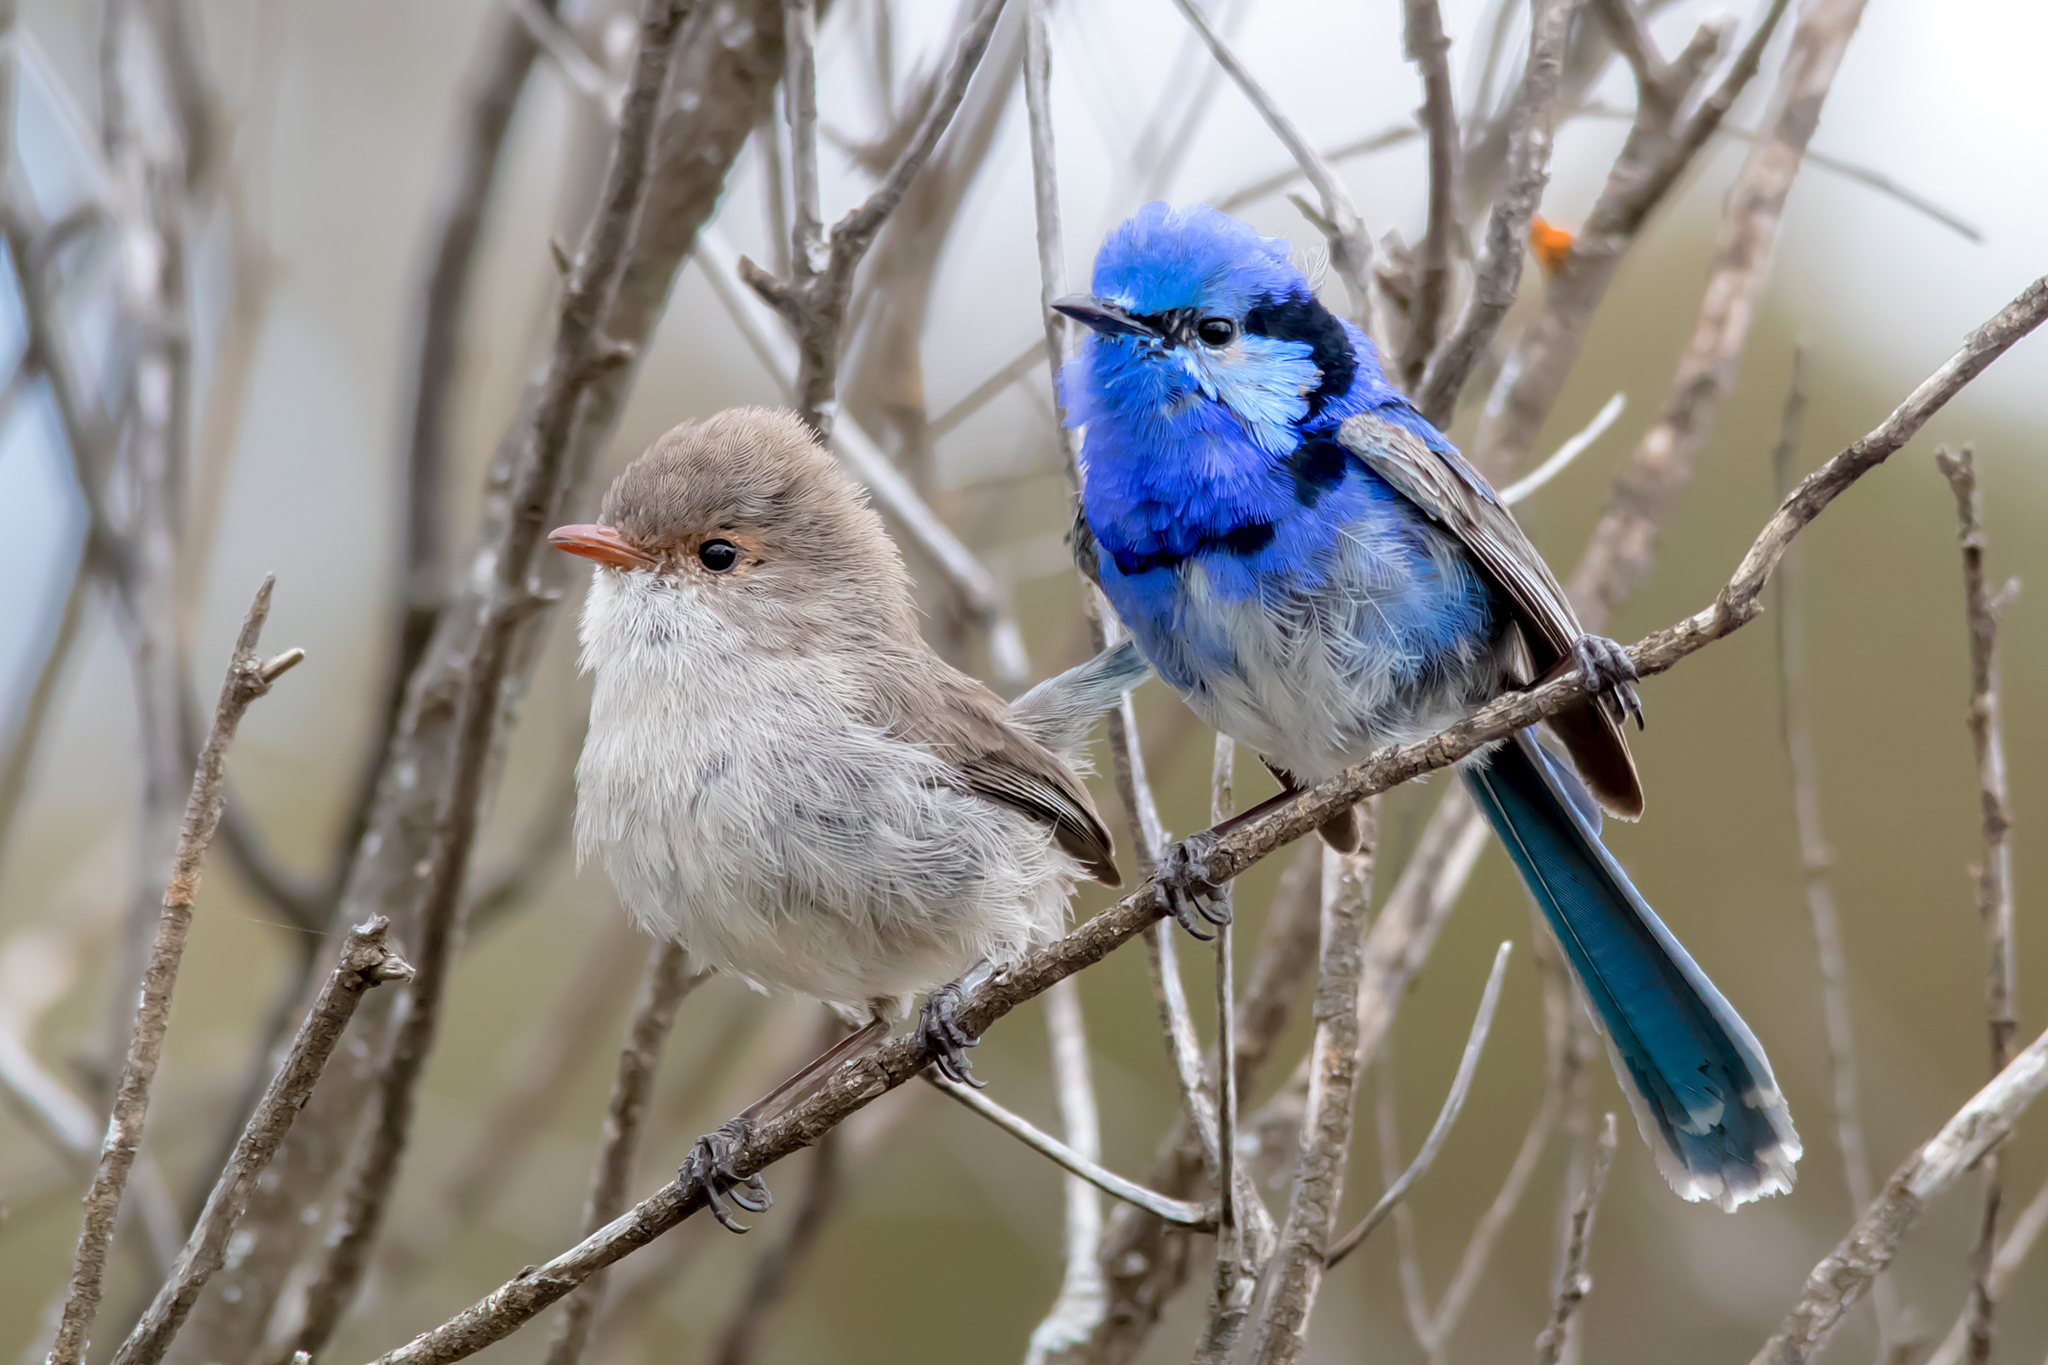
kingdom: Animalia
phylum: Chordata
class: Aves
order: Passeriformes
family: Maluridae
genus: Malurus
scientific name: Malurus splendens
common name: Splendid fairywren
